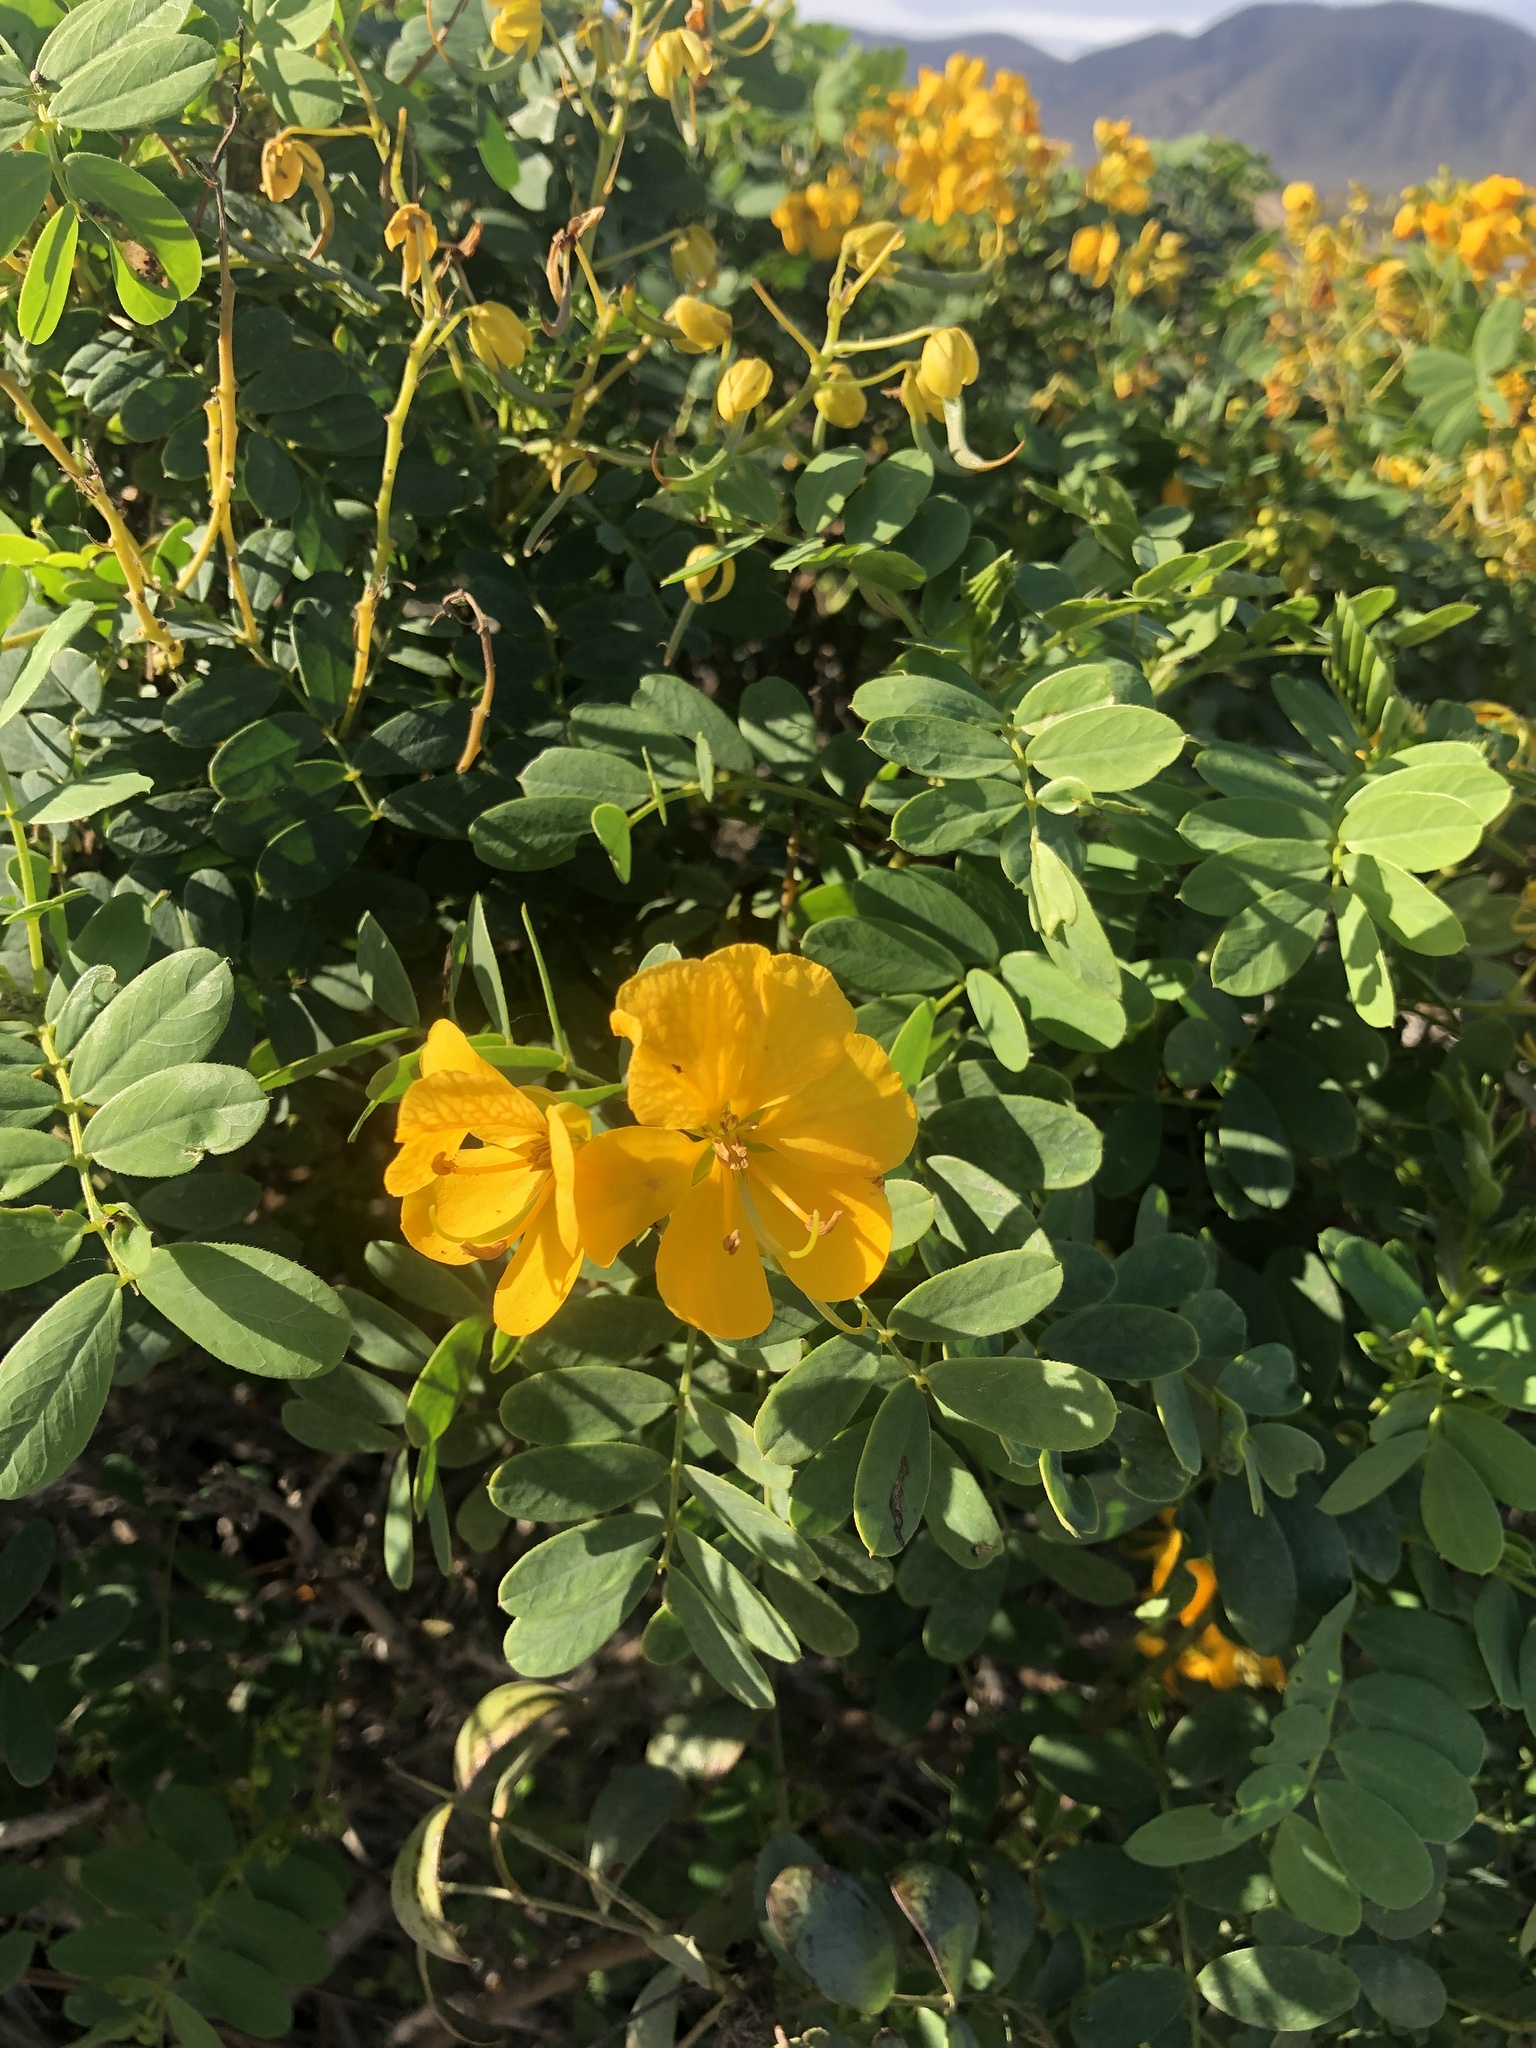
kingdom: Plantae
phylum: Tracheophyta
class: Magnoliopsida
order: Fabales
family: Fabaceae
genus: Senna
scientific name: Senna cumingii
